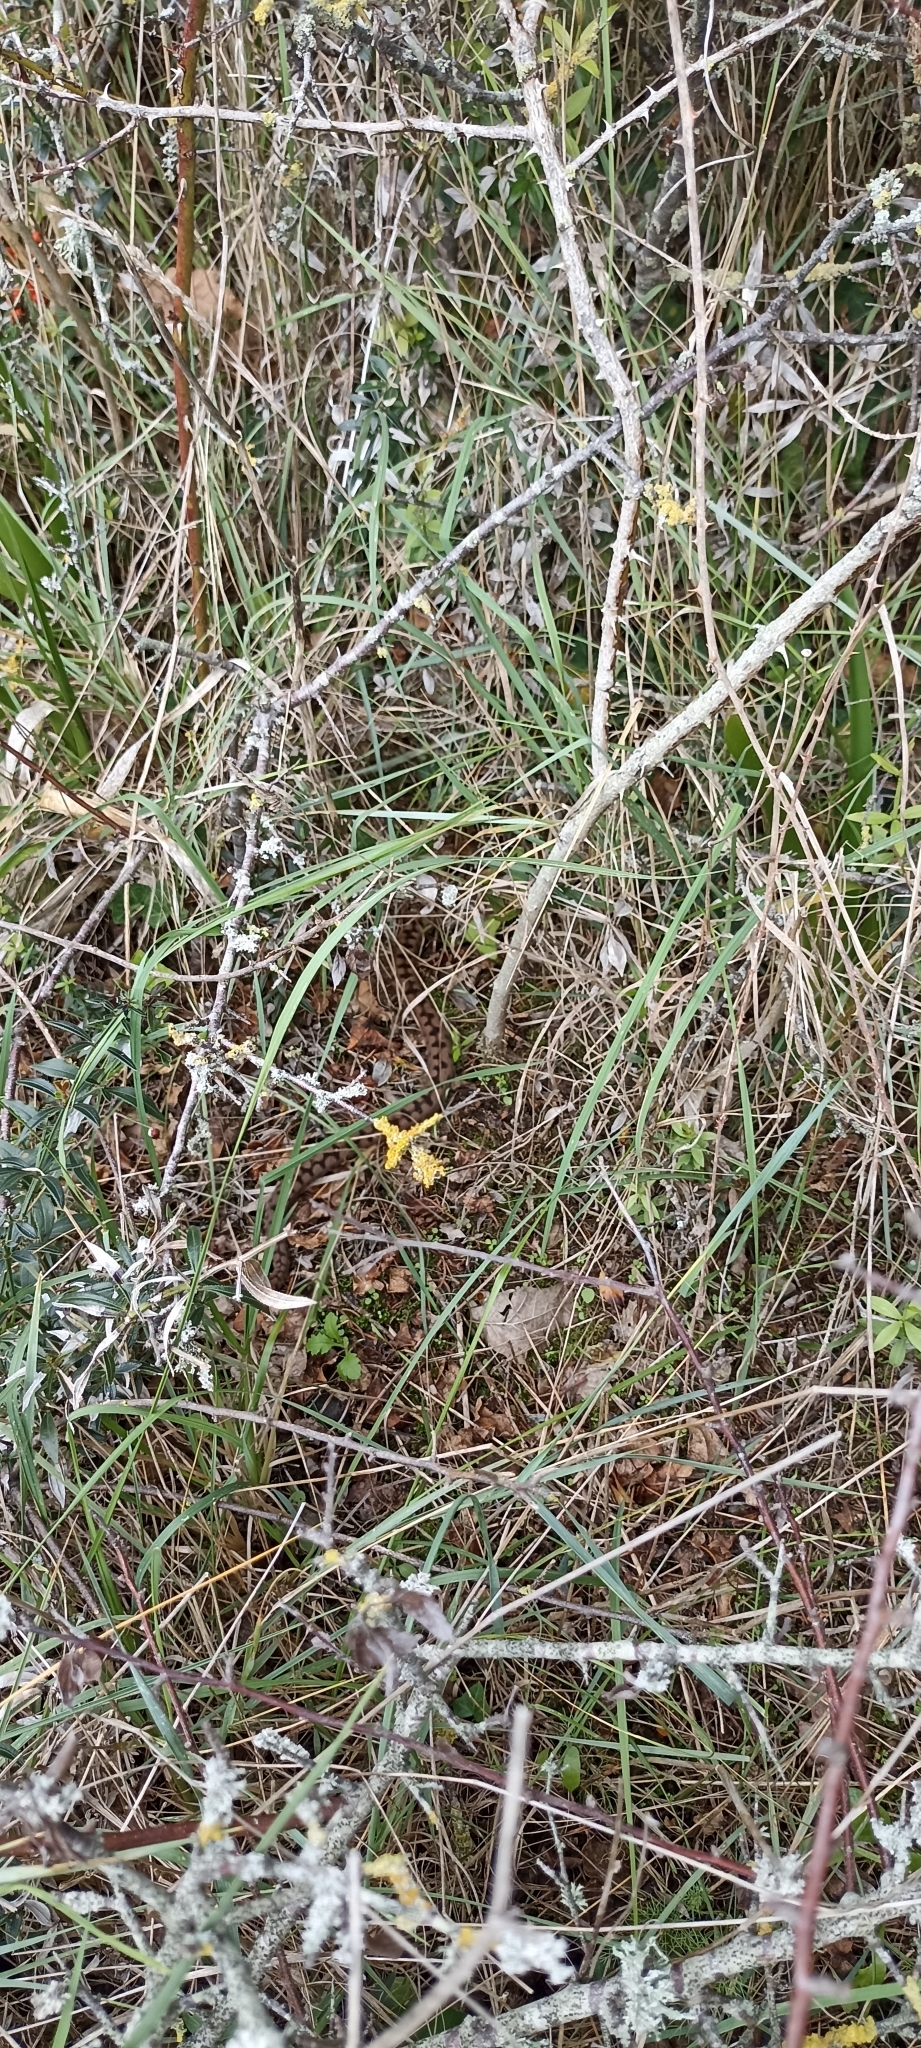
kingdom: Animalia
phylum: Chordata
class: Squamata
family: Viperidae
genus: Vipera
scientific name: Vipera aspis
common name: Asp viper
